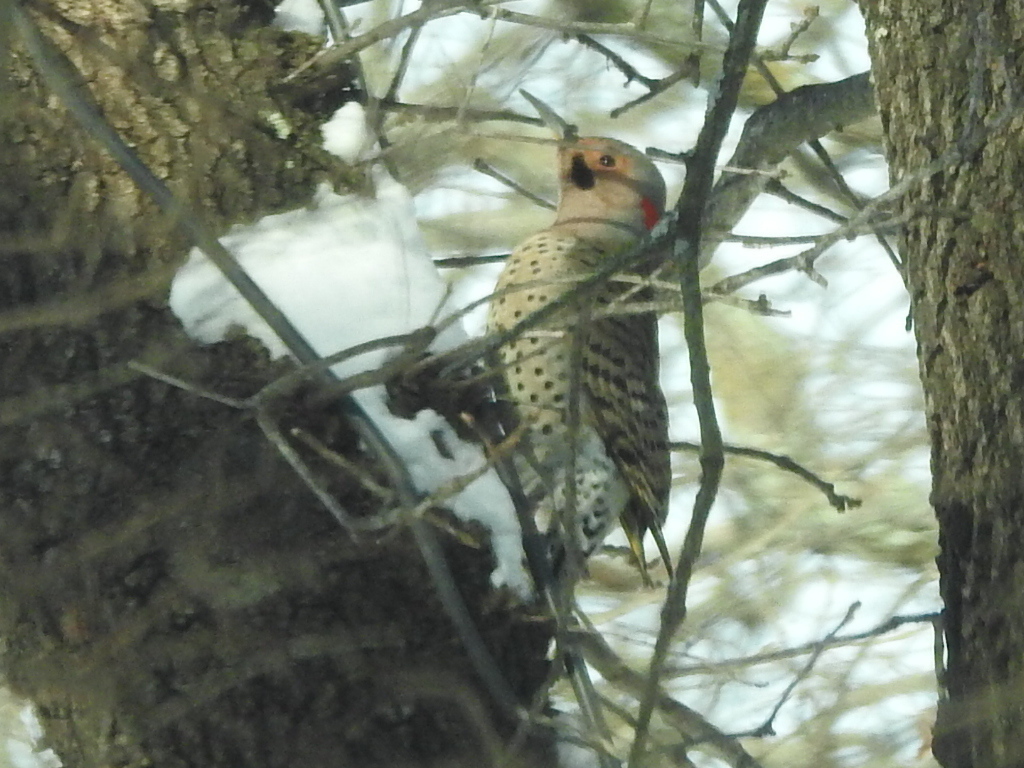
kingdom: Animalia
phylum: Chordata
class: Aves
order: Piciformes
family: Picidae
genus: Colaptes
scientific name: Colaptes auratus
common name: Northern flicker
